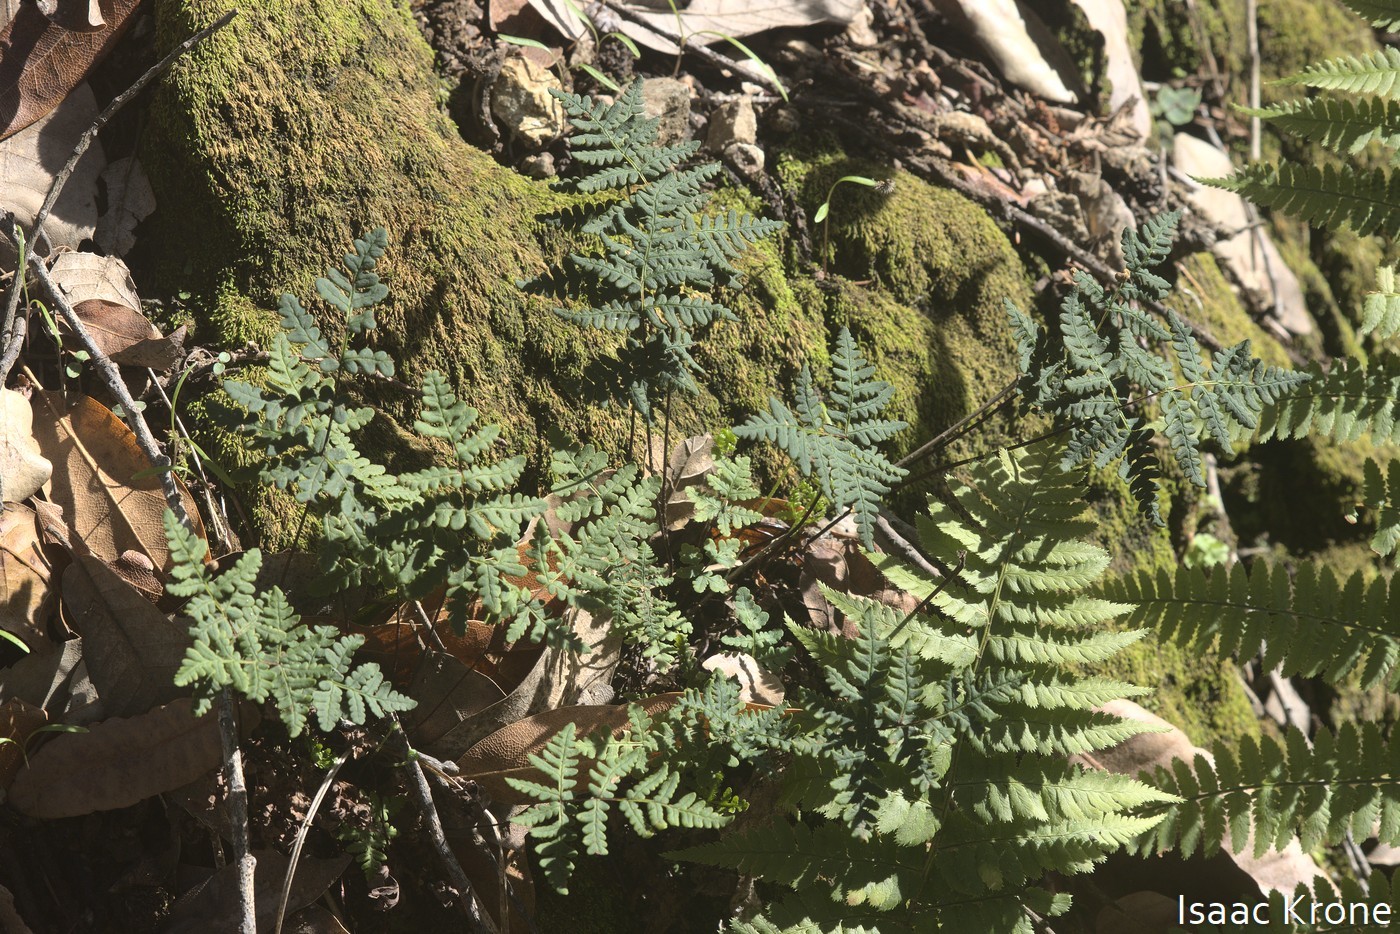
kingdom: Plantae
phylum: Tracheophyta
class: Polypodiopsida
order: Polypodiales
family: Pteridaceae
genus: Pentagramma
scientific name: Pentagramma triangularis
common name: Gold fern
